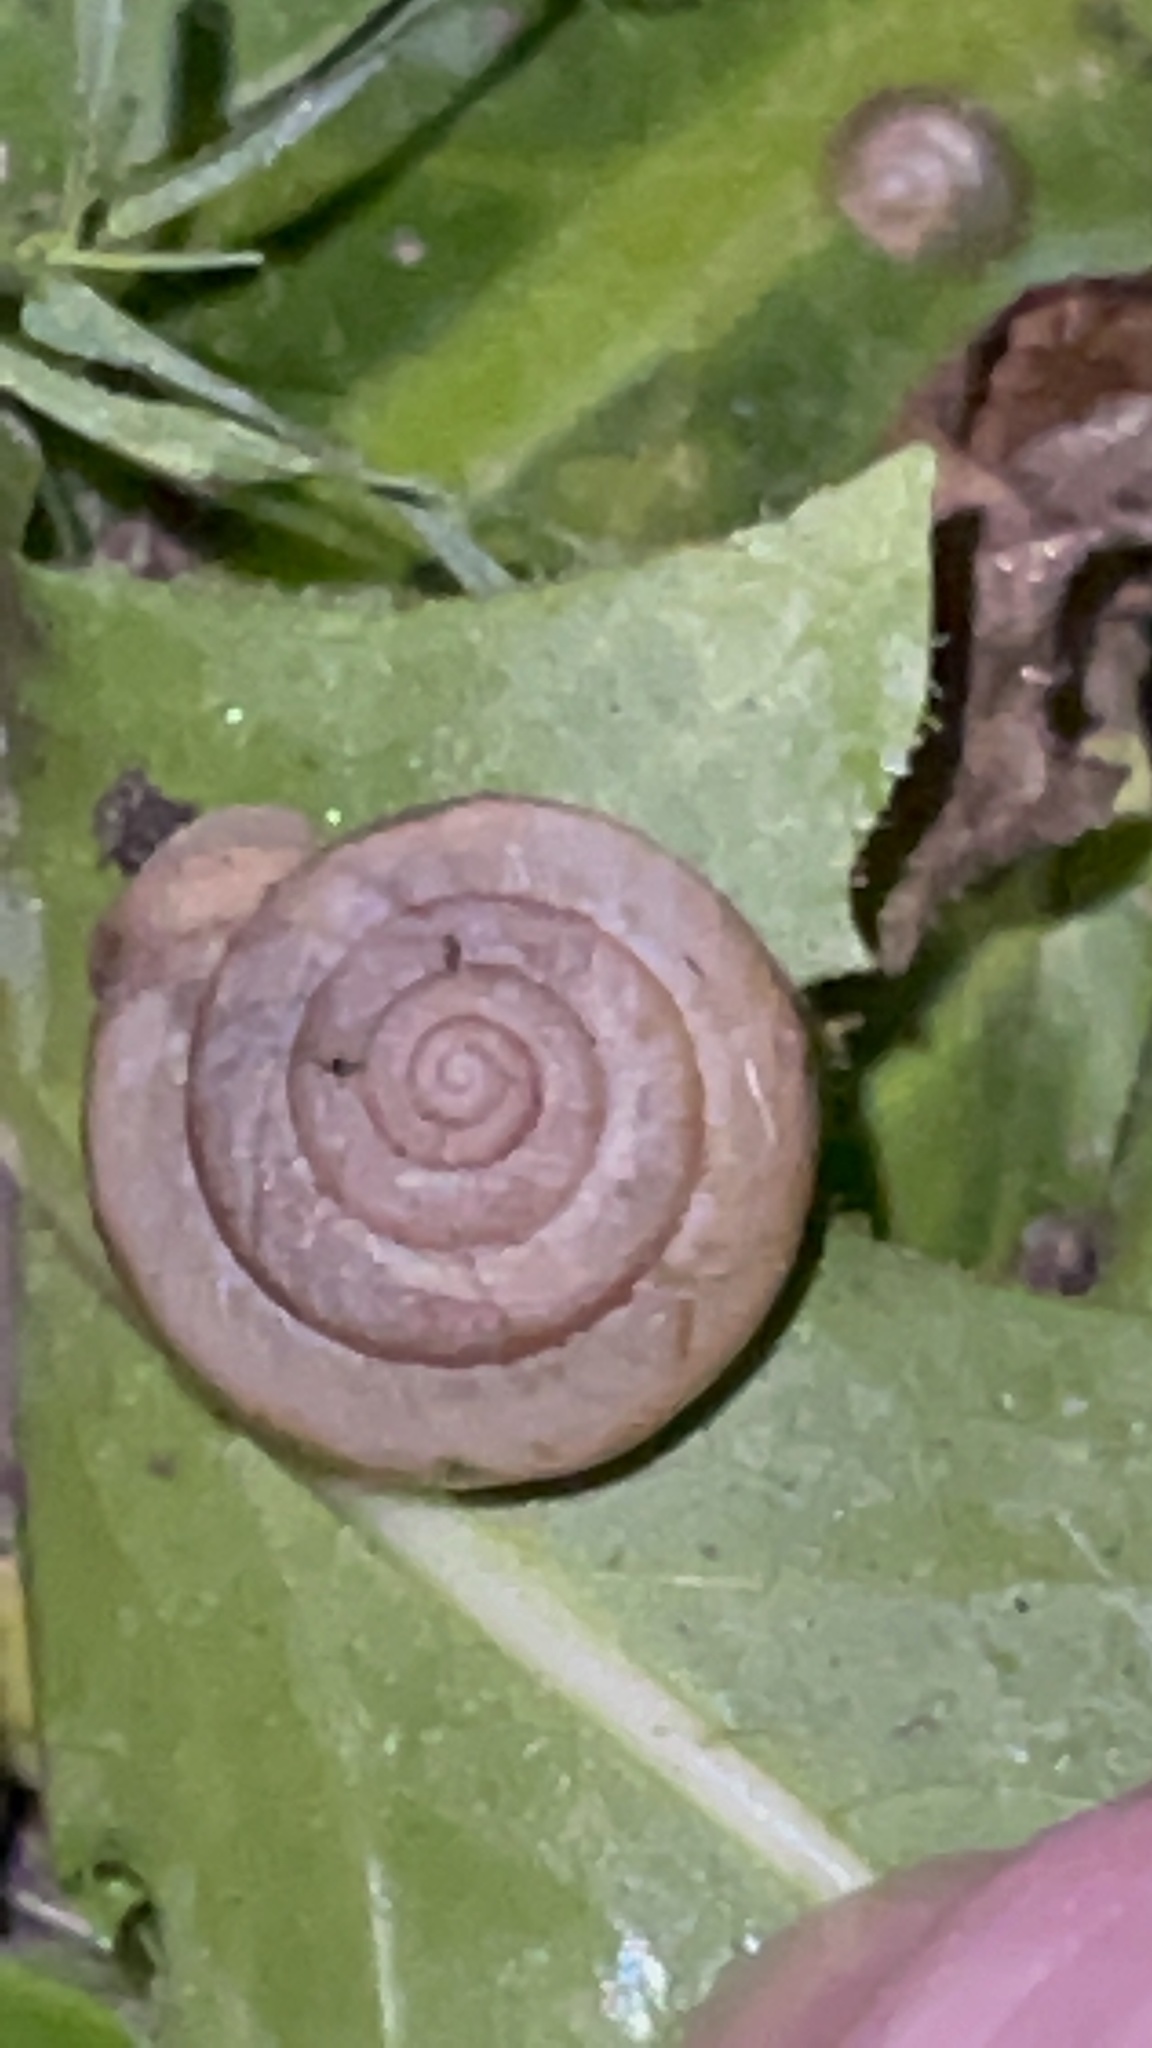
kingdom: Animalia
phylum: Mollusca
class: Gastropoda
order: Stylommatophora
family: Camaenidae
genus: Bradybaena
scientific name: Bradybaena similaris
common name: Asian trampsnail
